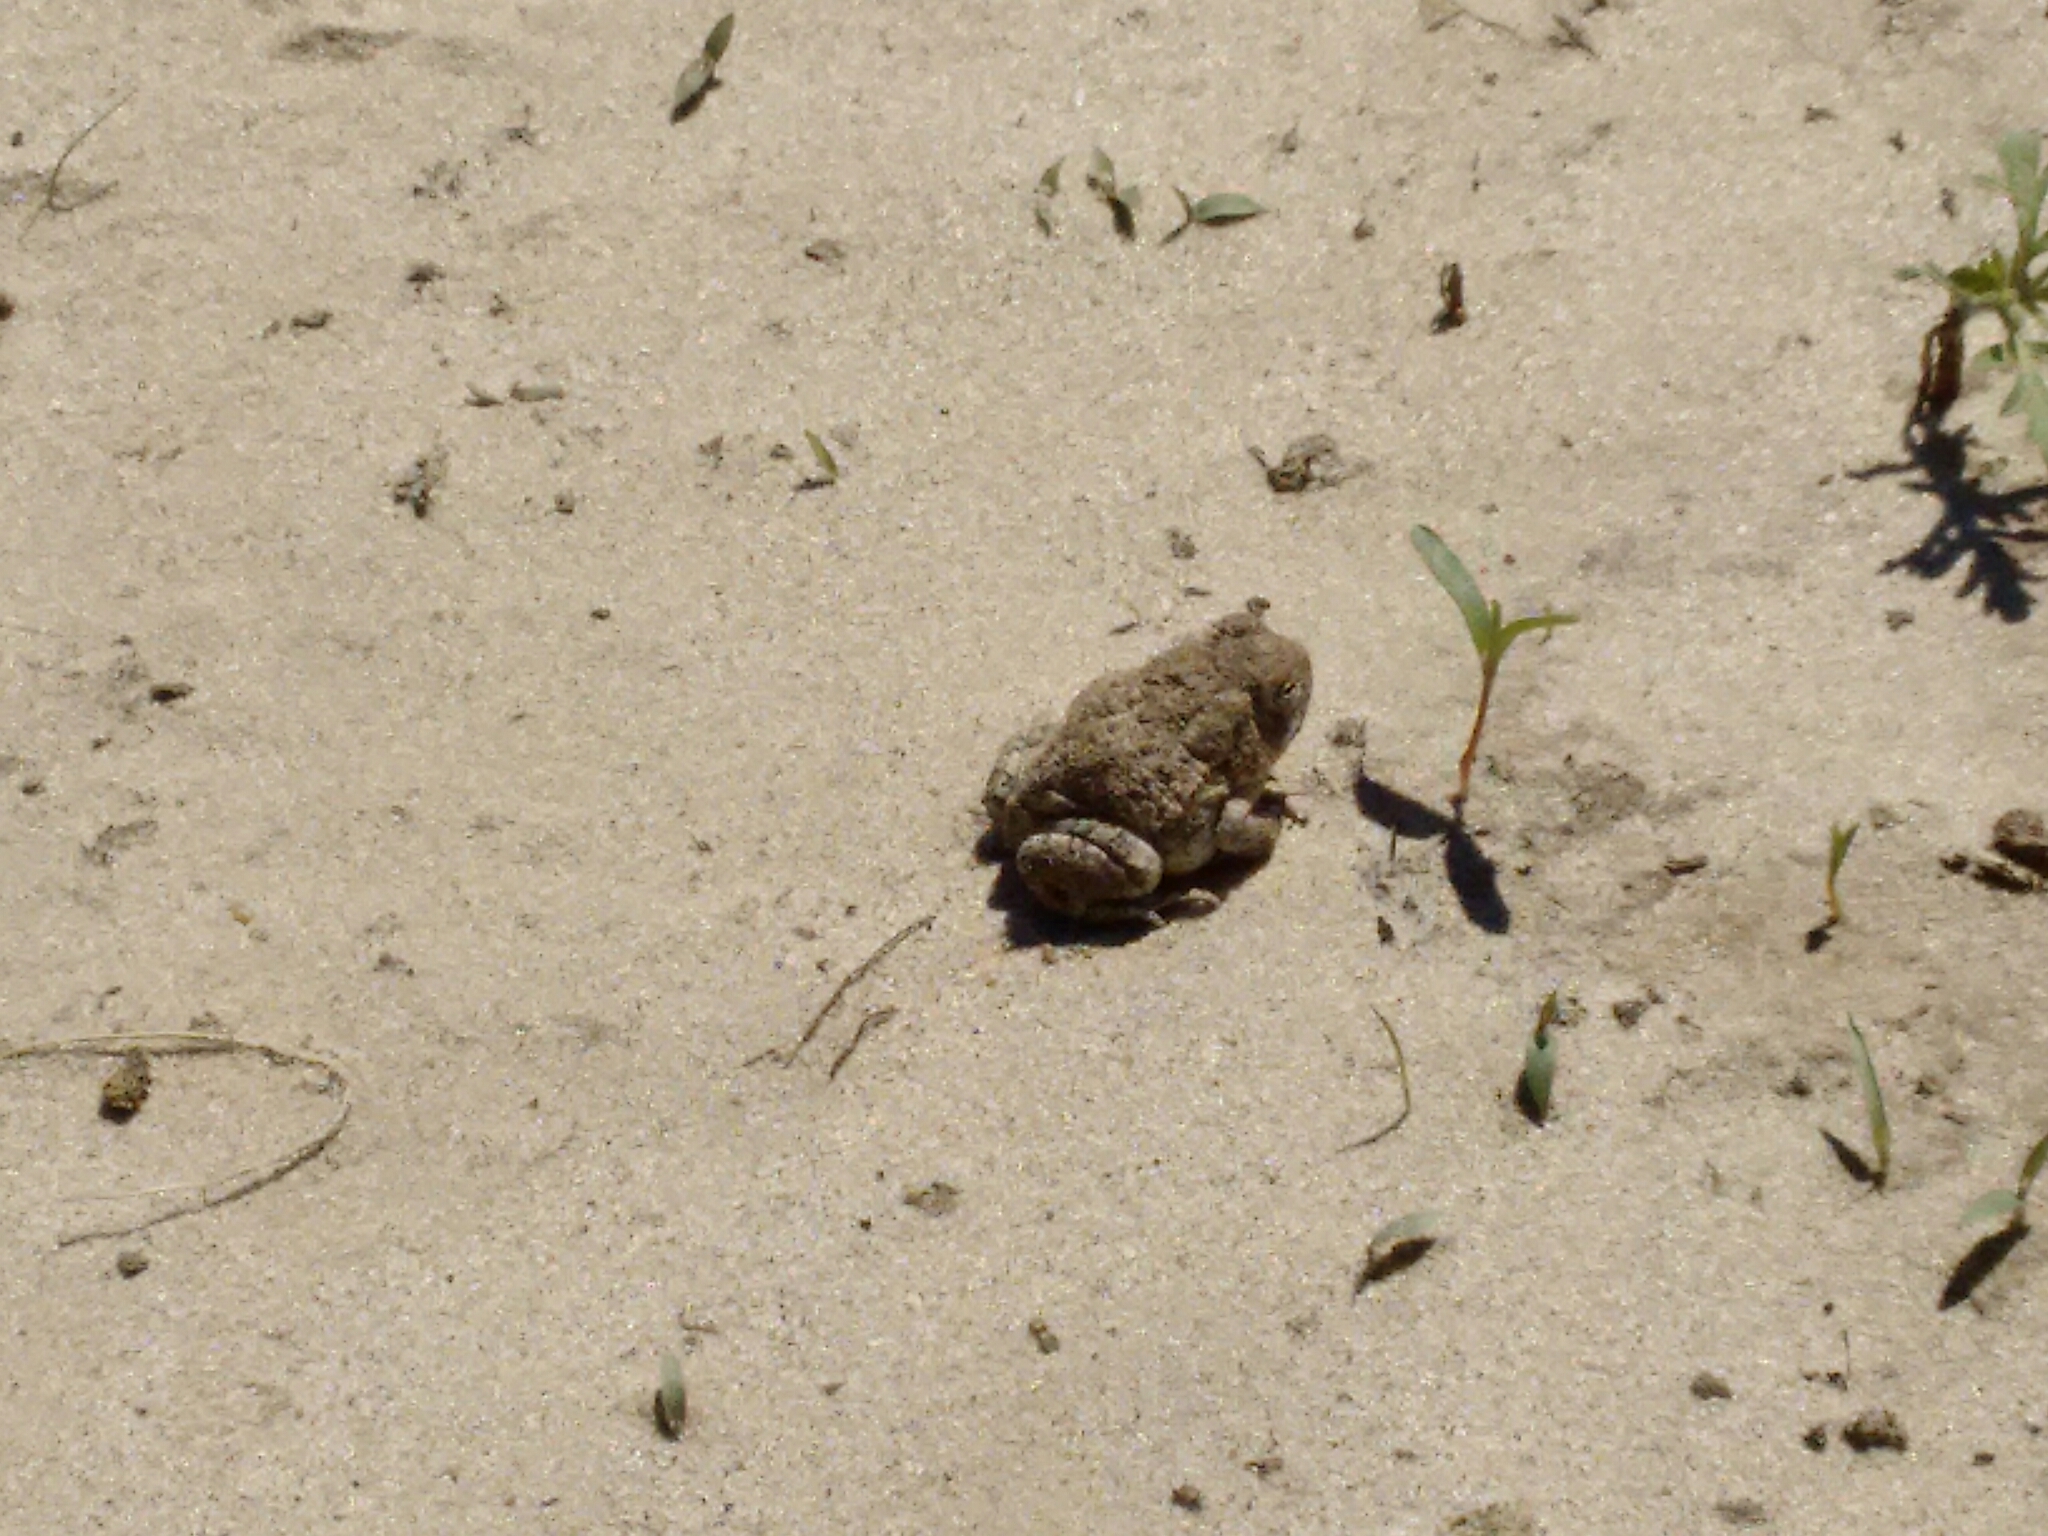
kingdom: Animalia
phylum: Chordata
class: Amphibia
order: Anura
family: Bufonidae
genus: Anaxyrus
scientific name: Anaxyrus woodhousii
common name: Woodhouse's toad
